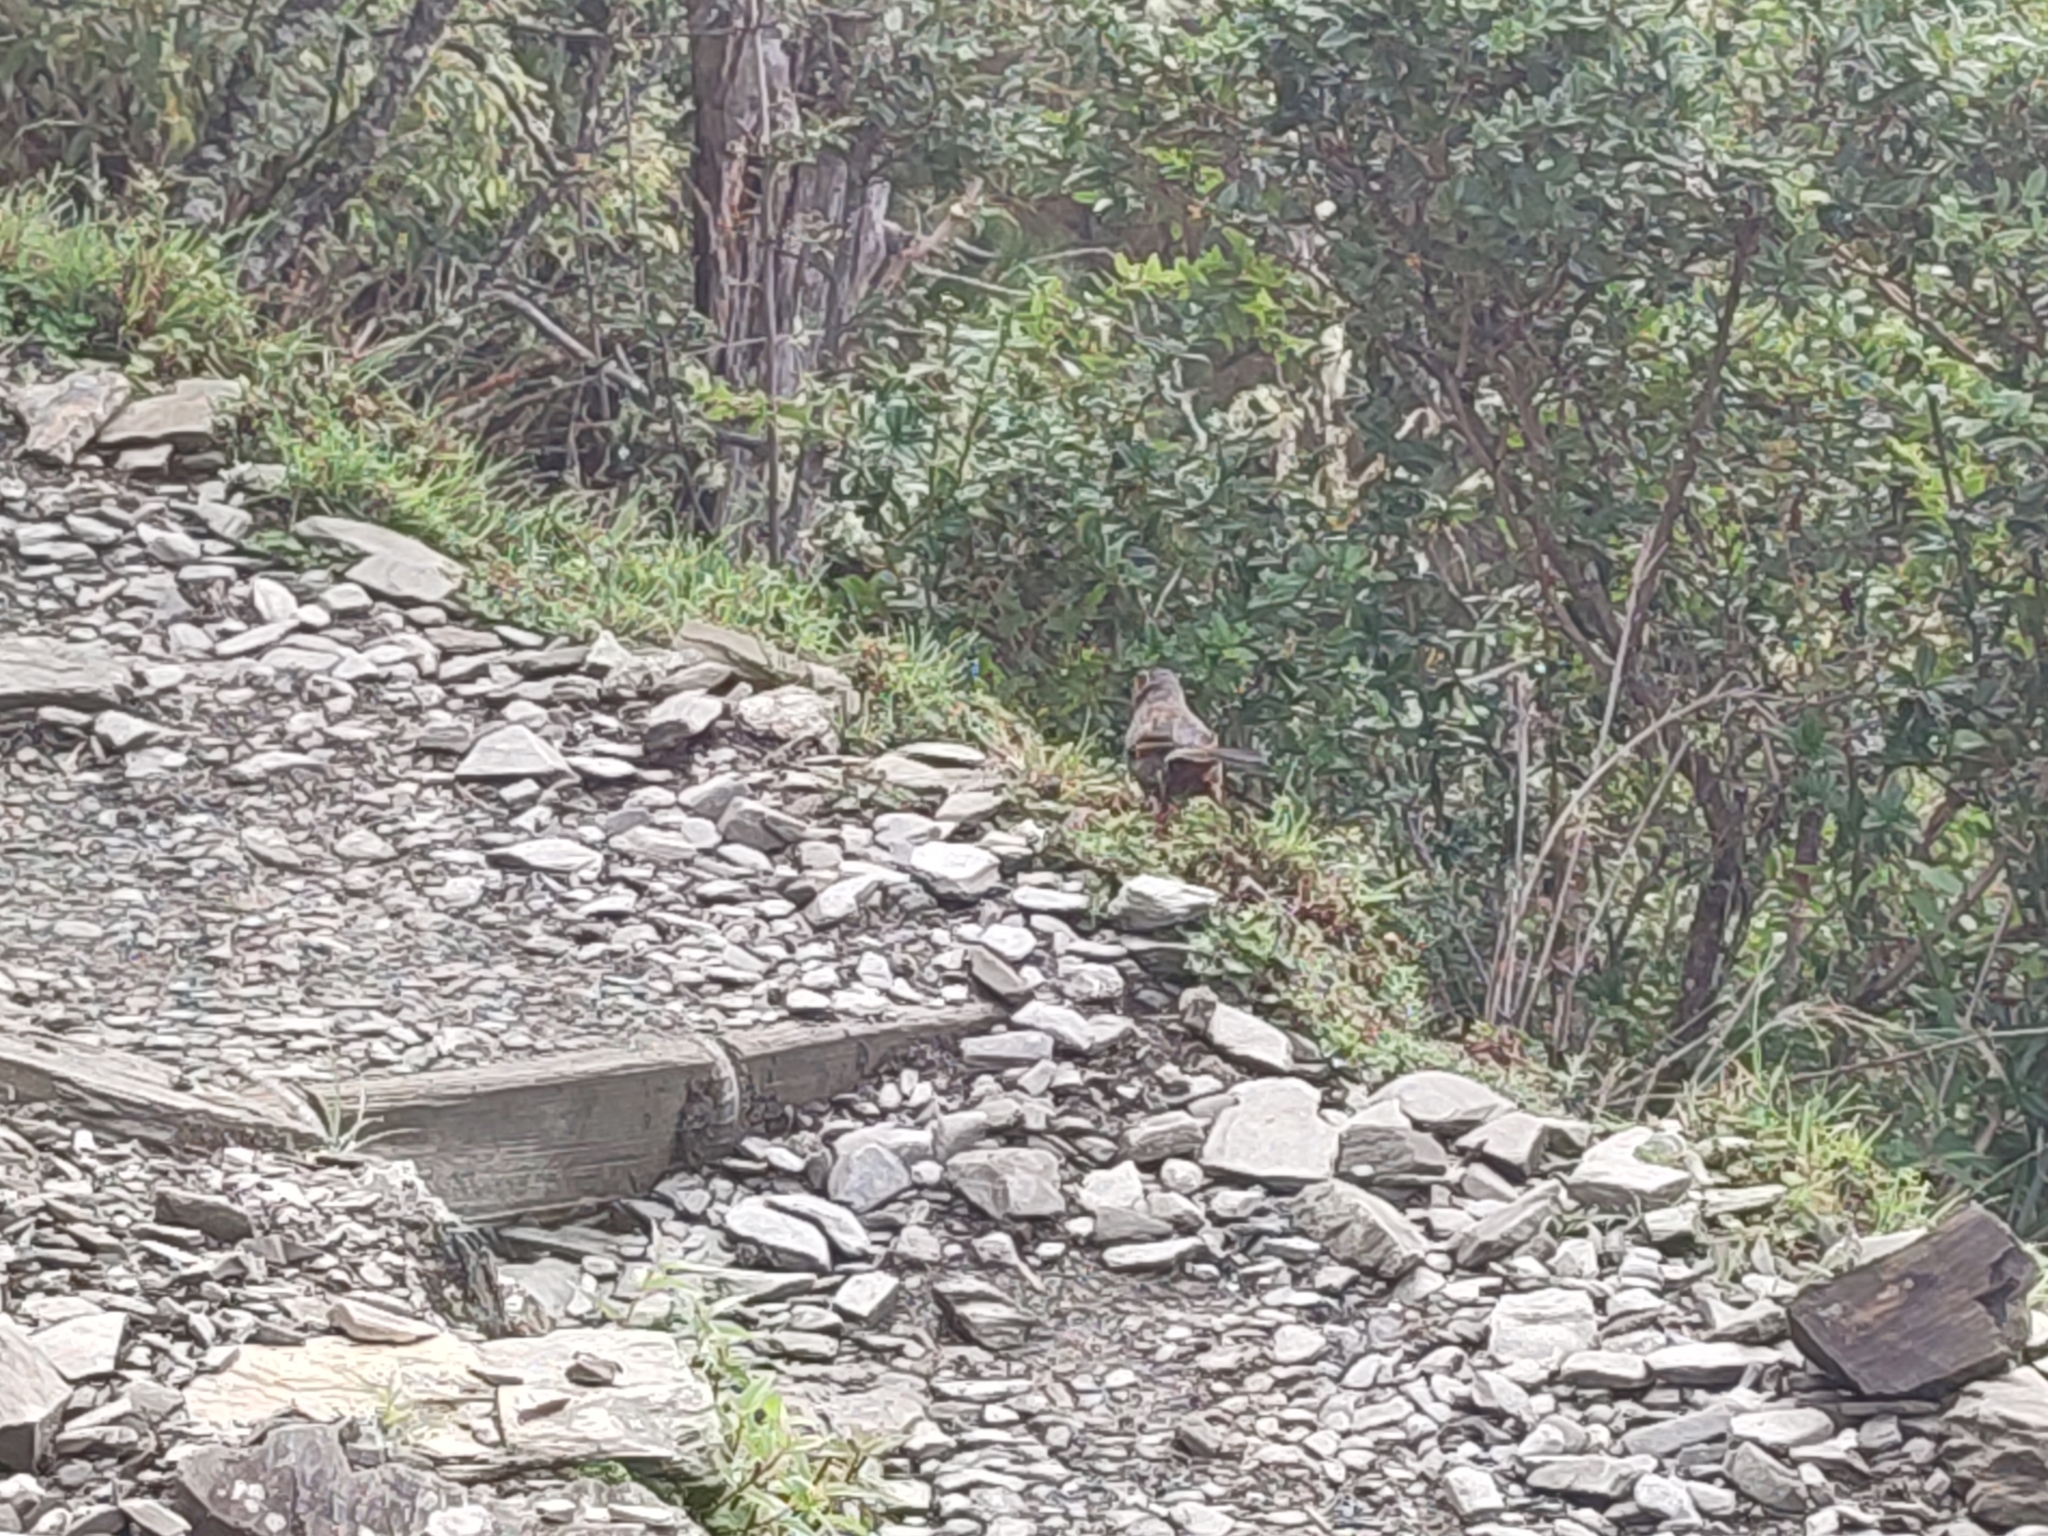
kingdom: Animalia
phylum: Chordata
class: Aves
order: Passeriformes
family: Leiothrichidae
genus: Trochalopteron
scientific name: Trochalopteron morrisonianum
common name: White-whiskered laughingthrush
